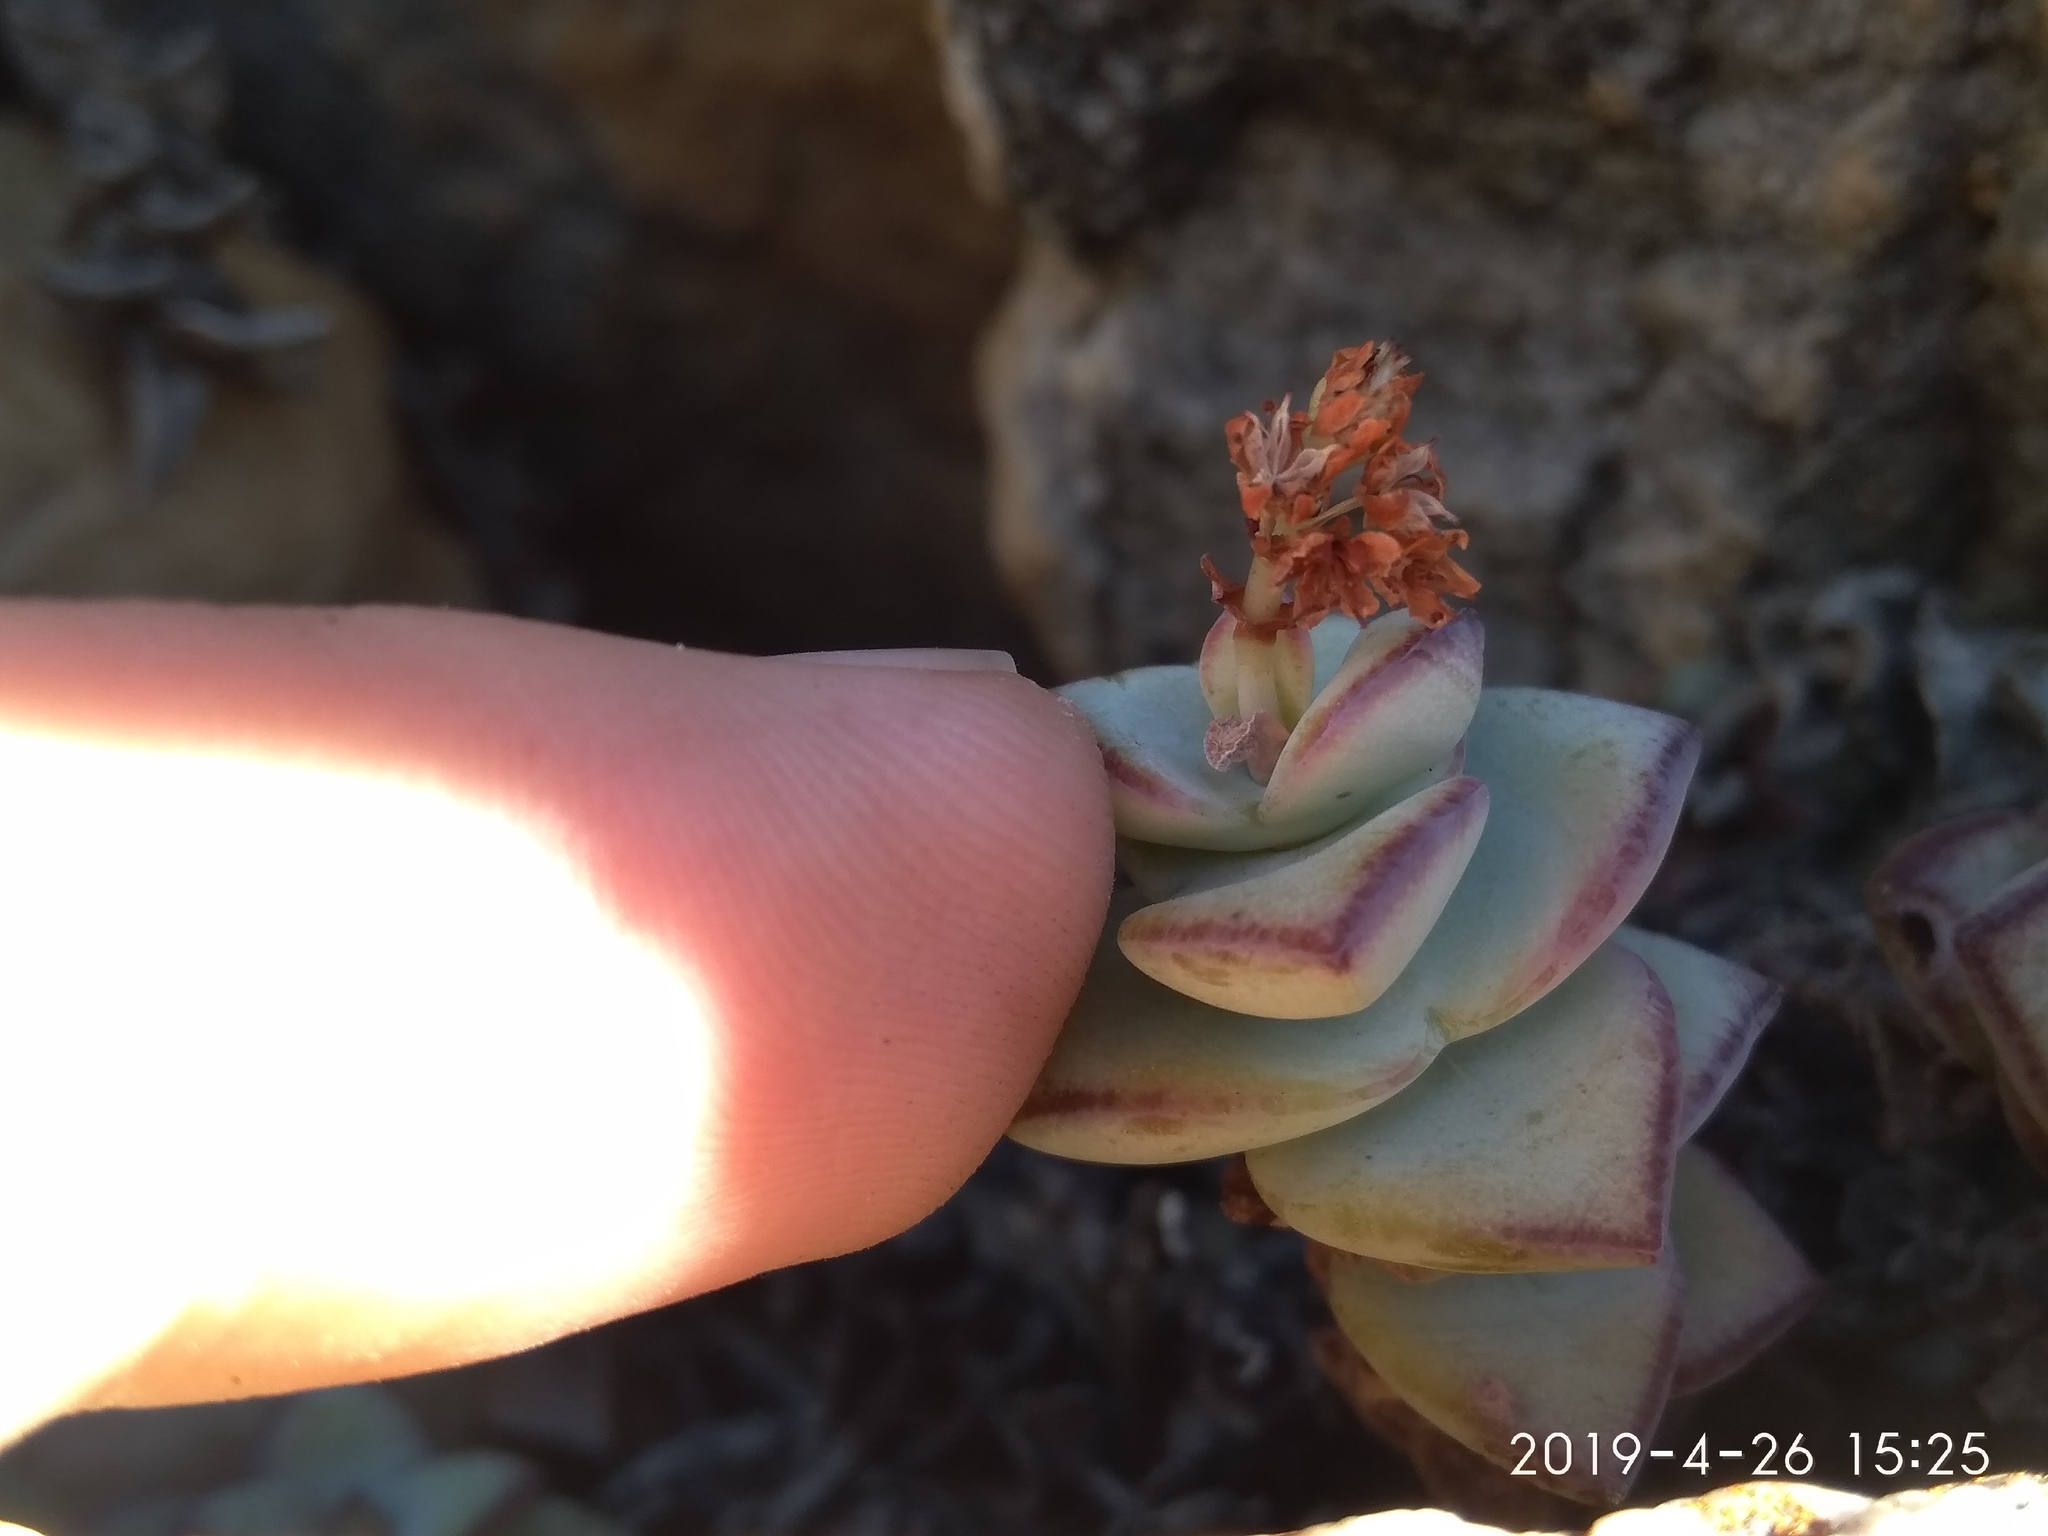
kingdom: Plantae
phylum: Tracheophyta
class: Magnoliopsida
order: Saxifragales
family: Crassulaceae
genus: Crassula
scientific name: Crassula rupestris
